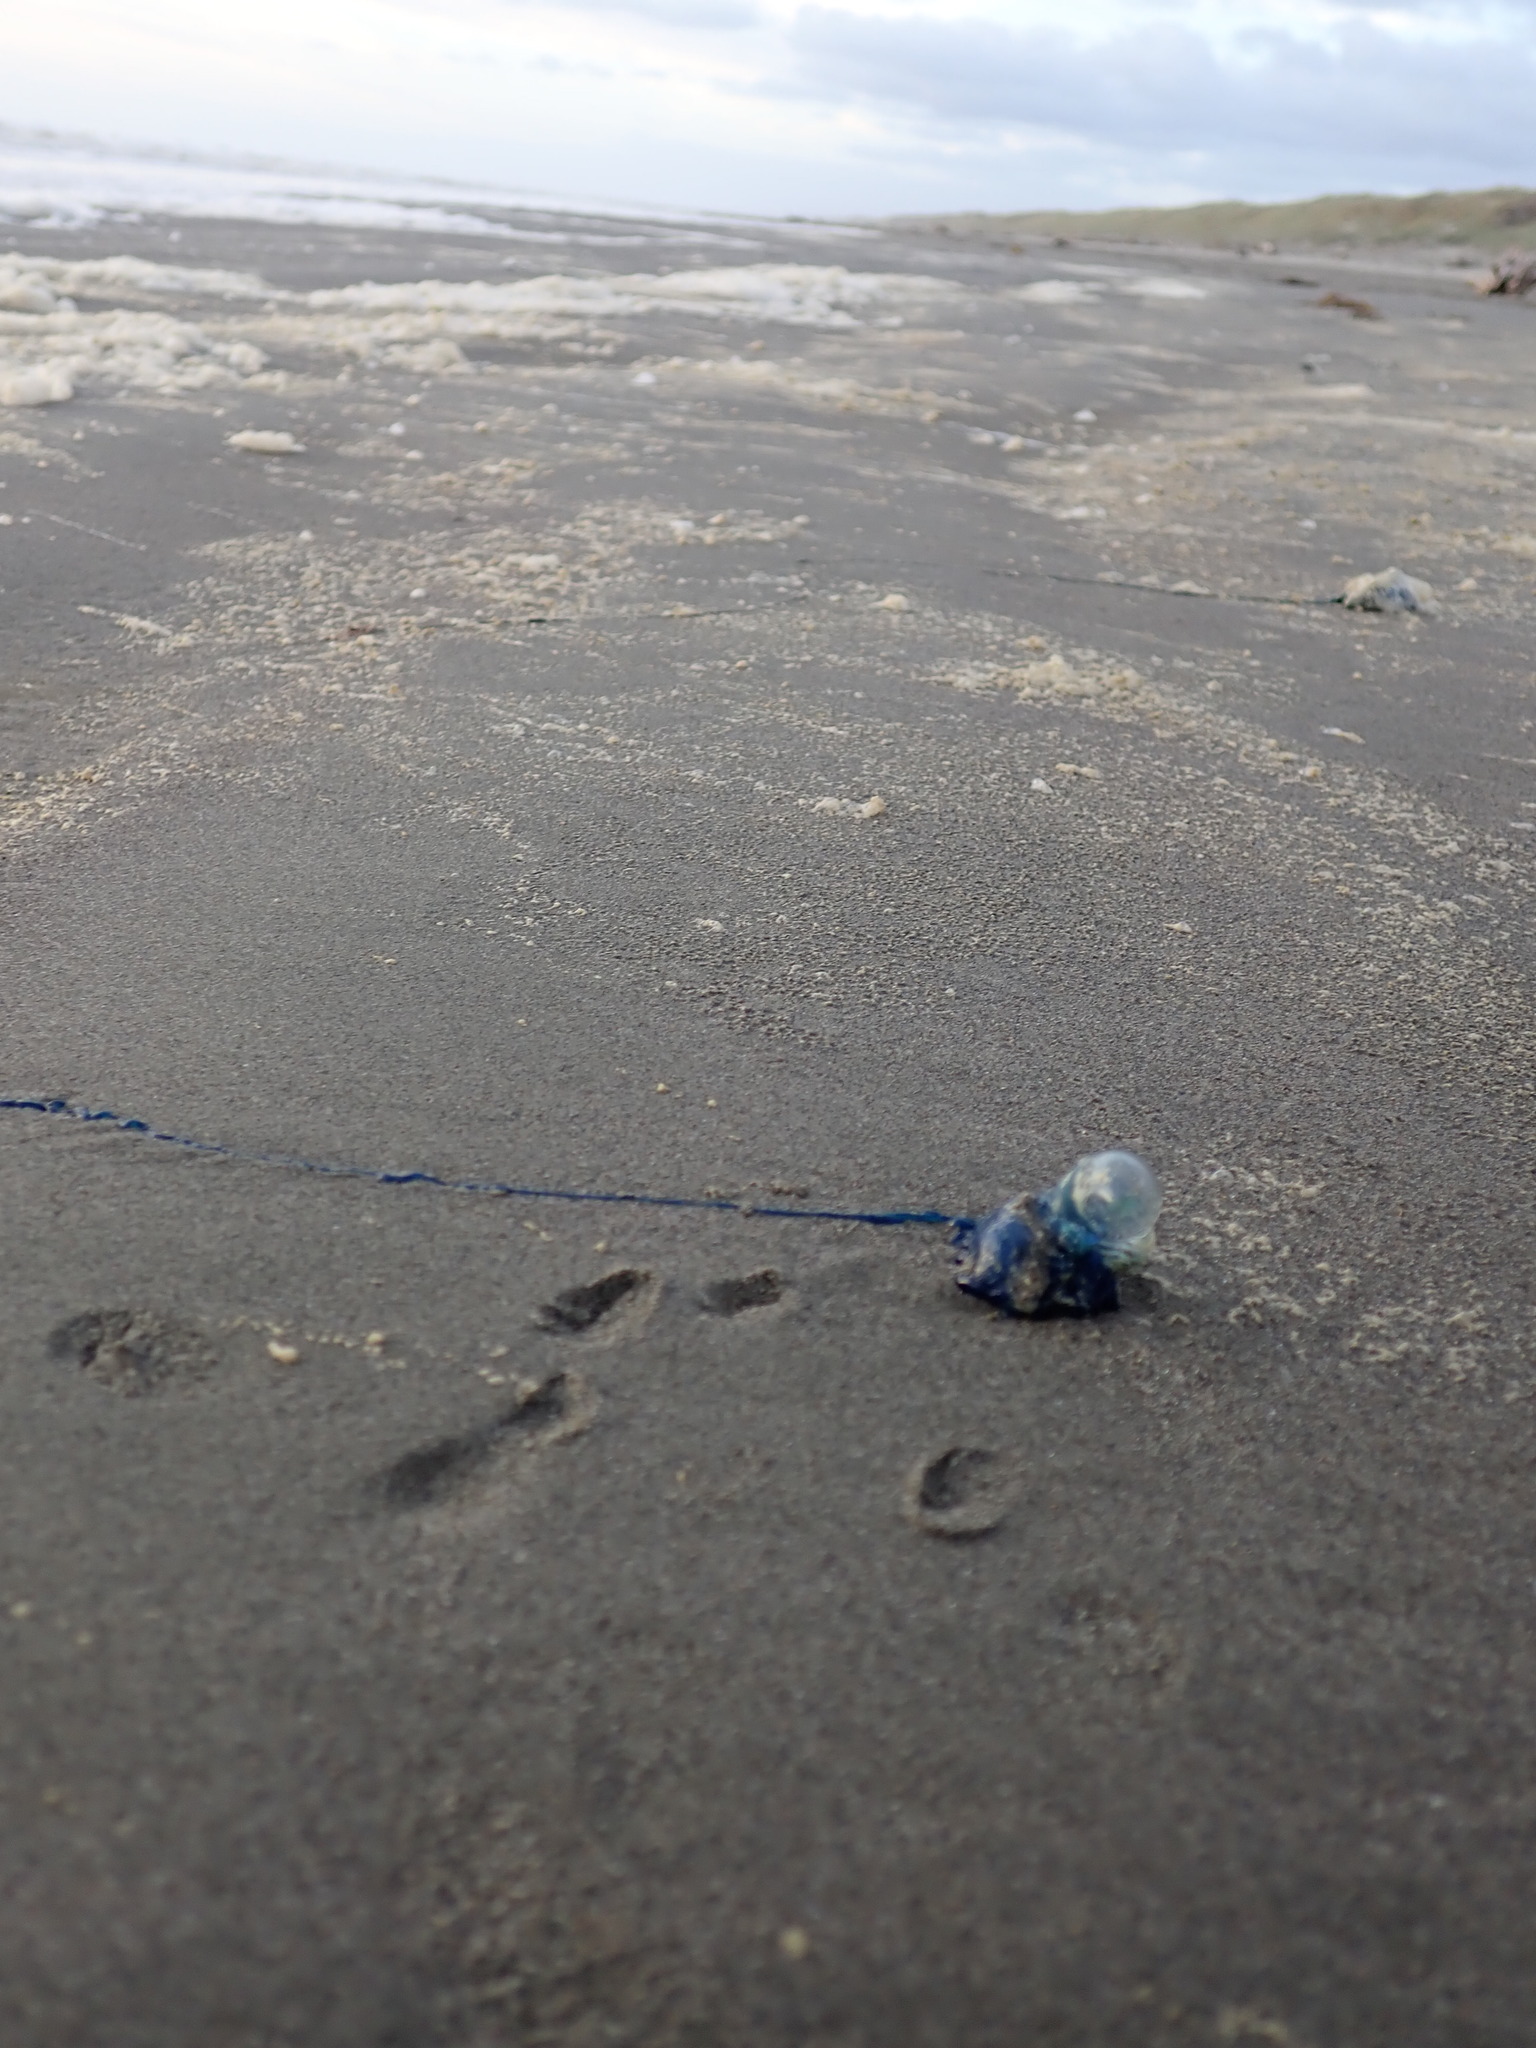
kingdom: Animalia
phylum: Cnidaria
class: Hydrozoa
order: Siphonophorae
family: Physaliidae
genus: Physalia
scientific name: Physalia physalis
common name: Portuguese man-of-war
